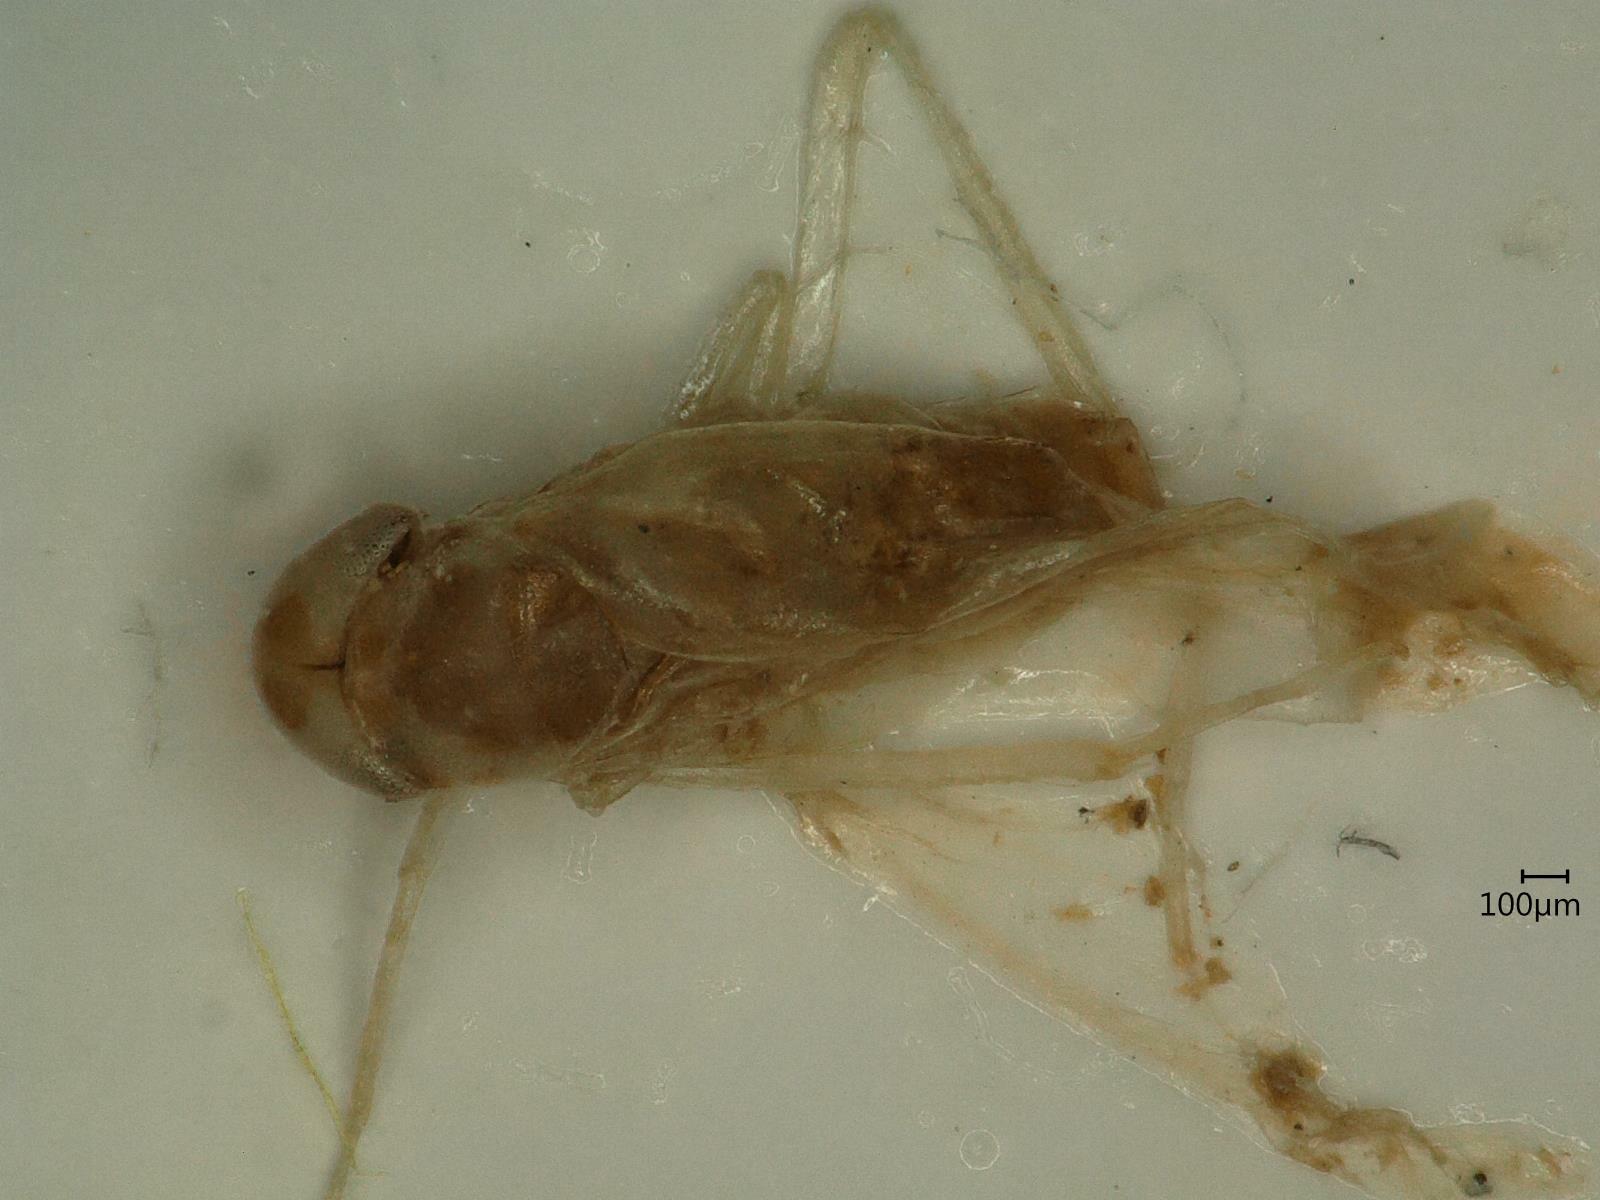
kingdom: Animalia
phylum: Arthropoda
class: Insecta
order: Hemiptera
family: Cicadellidae
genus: Eupteryx
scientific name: Eupteryx cyclops
